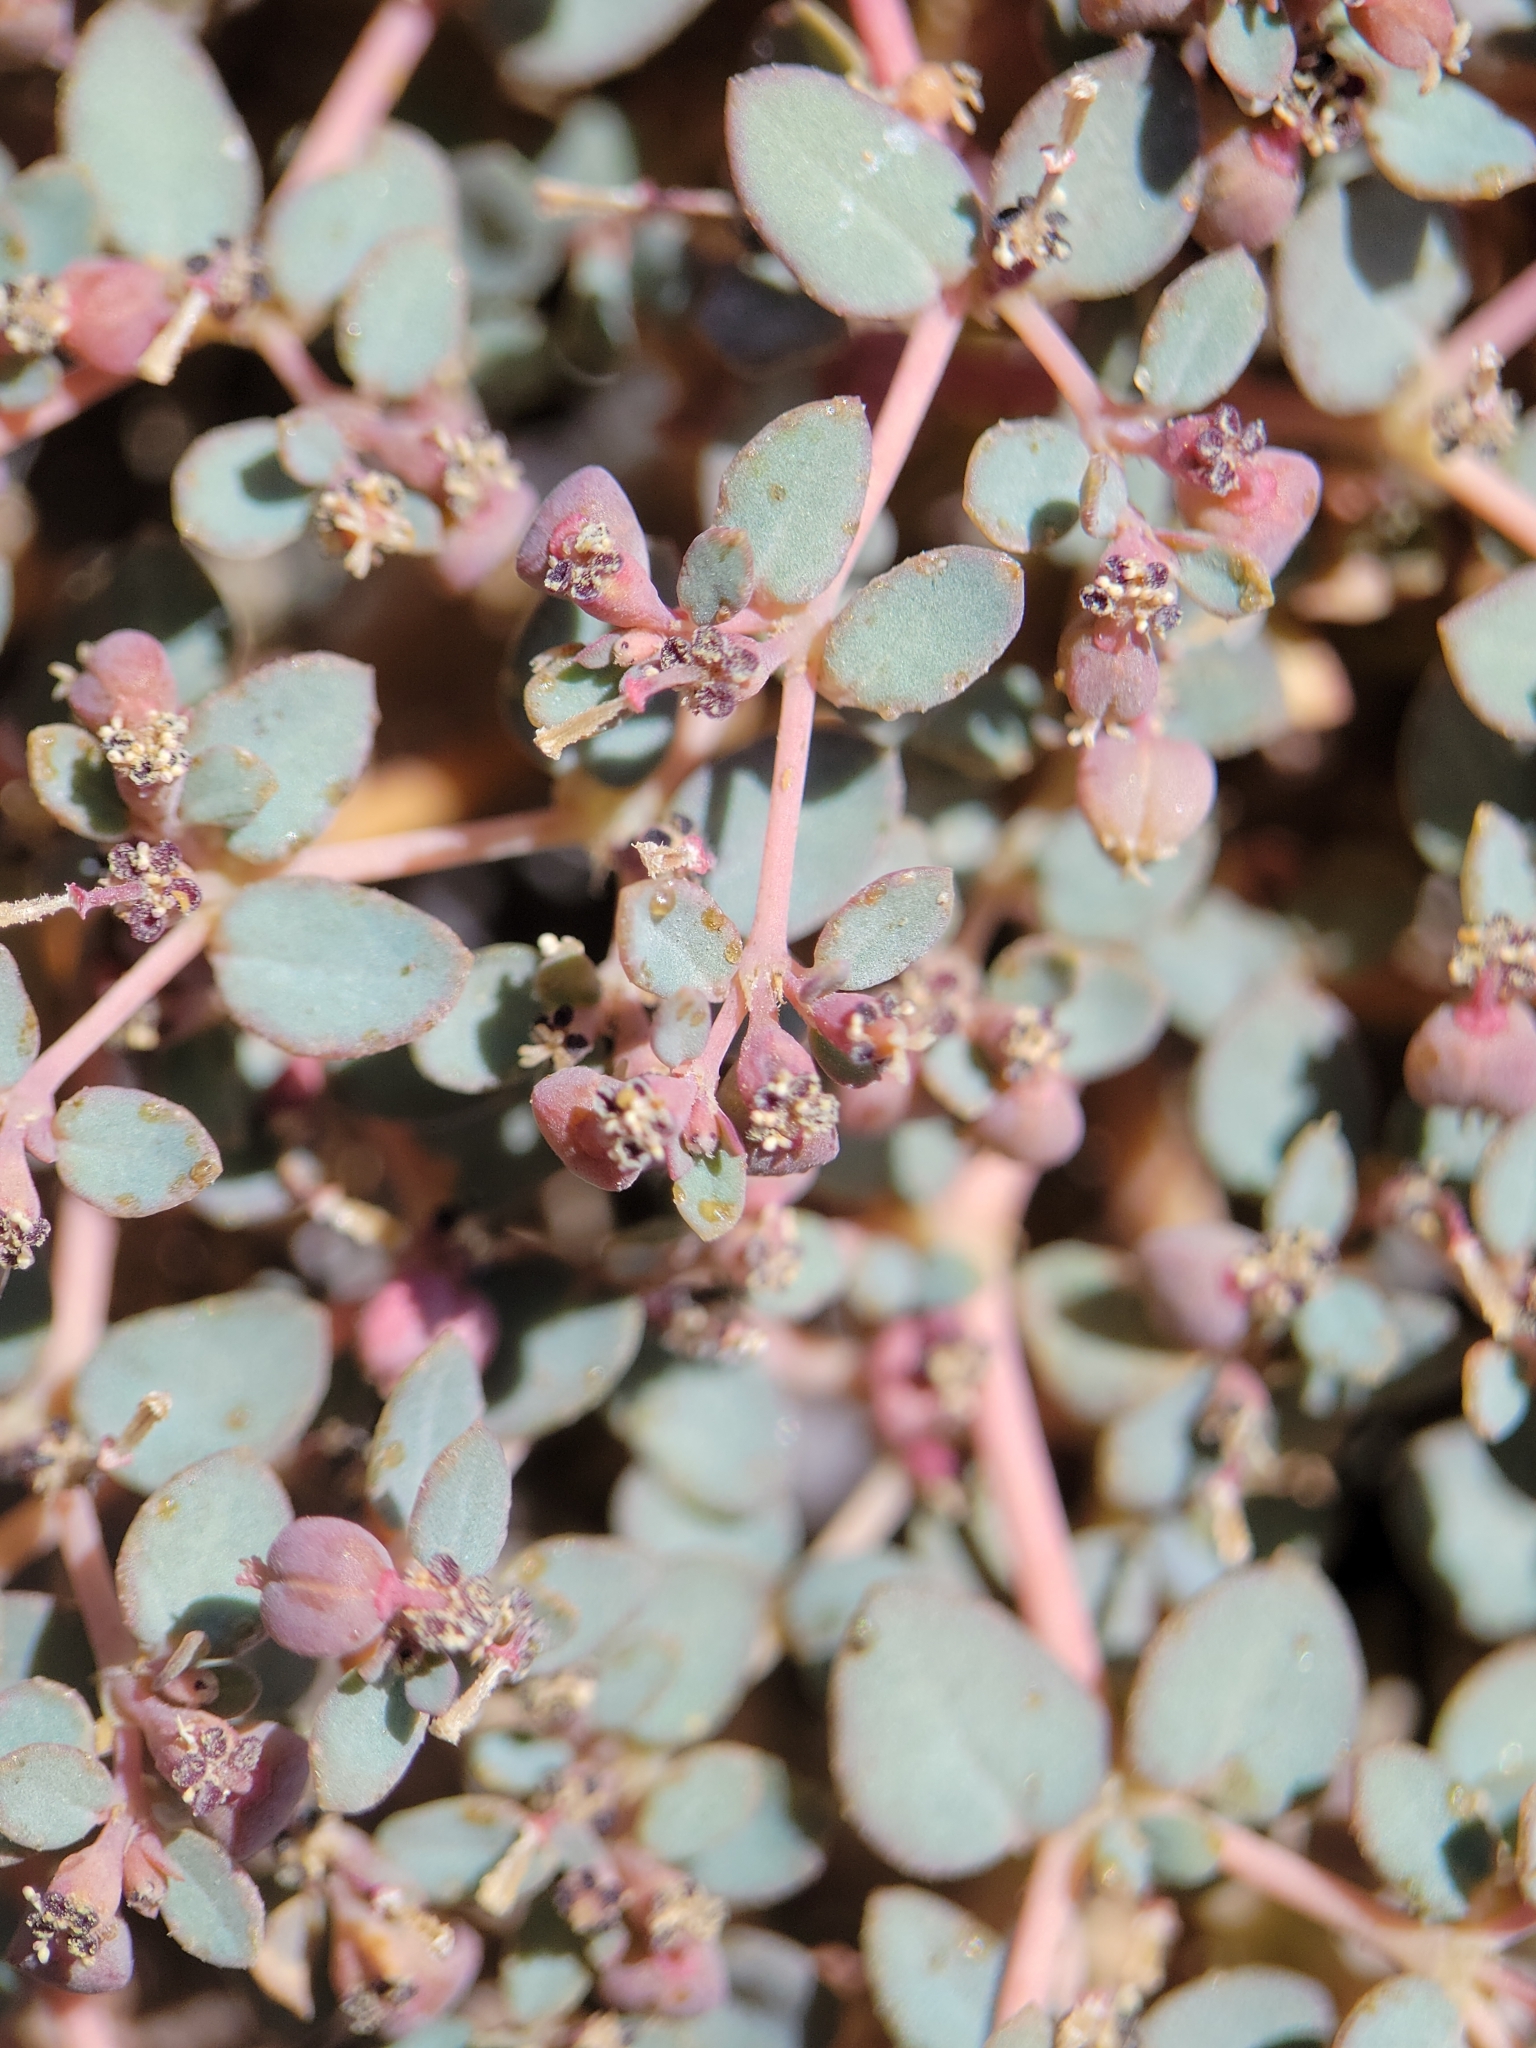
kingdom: Plantae
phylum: Tracheophyta
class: Magnoliopsida
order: Malpighiales
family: Euphorbiaceae
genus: Euphorbia
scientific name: Euphorbia parishii
